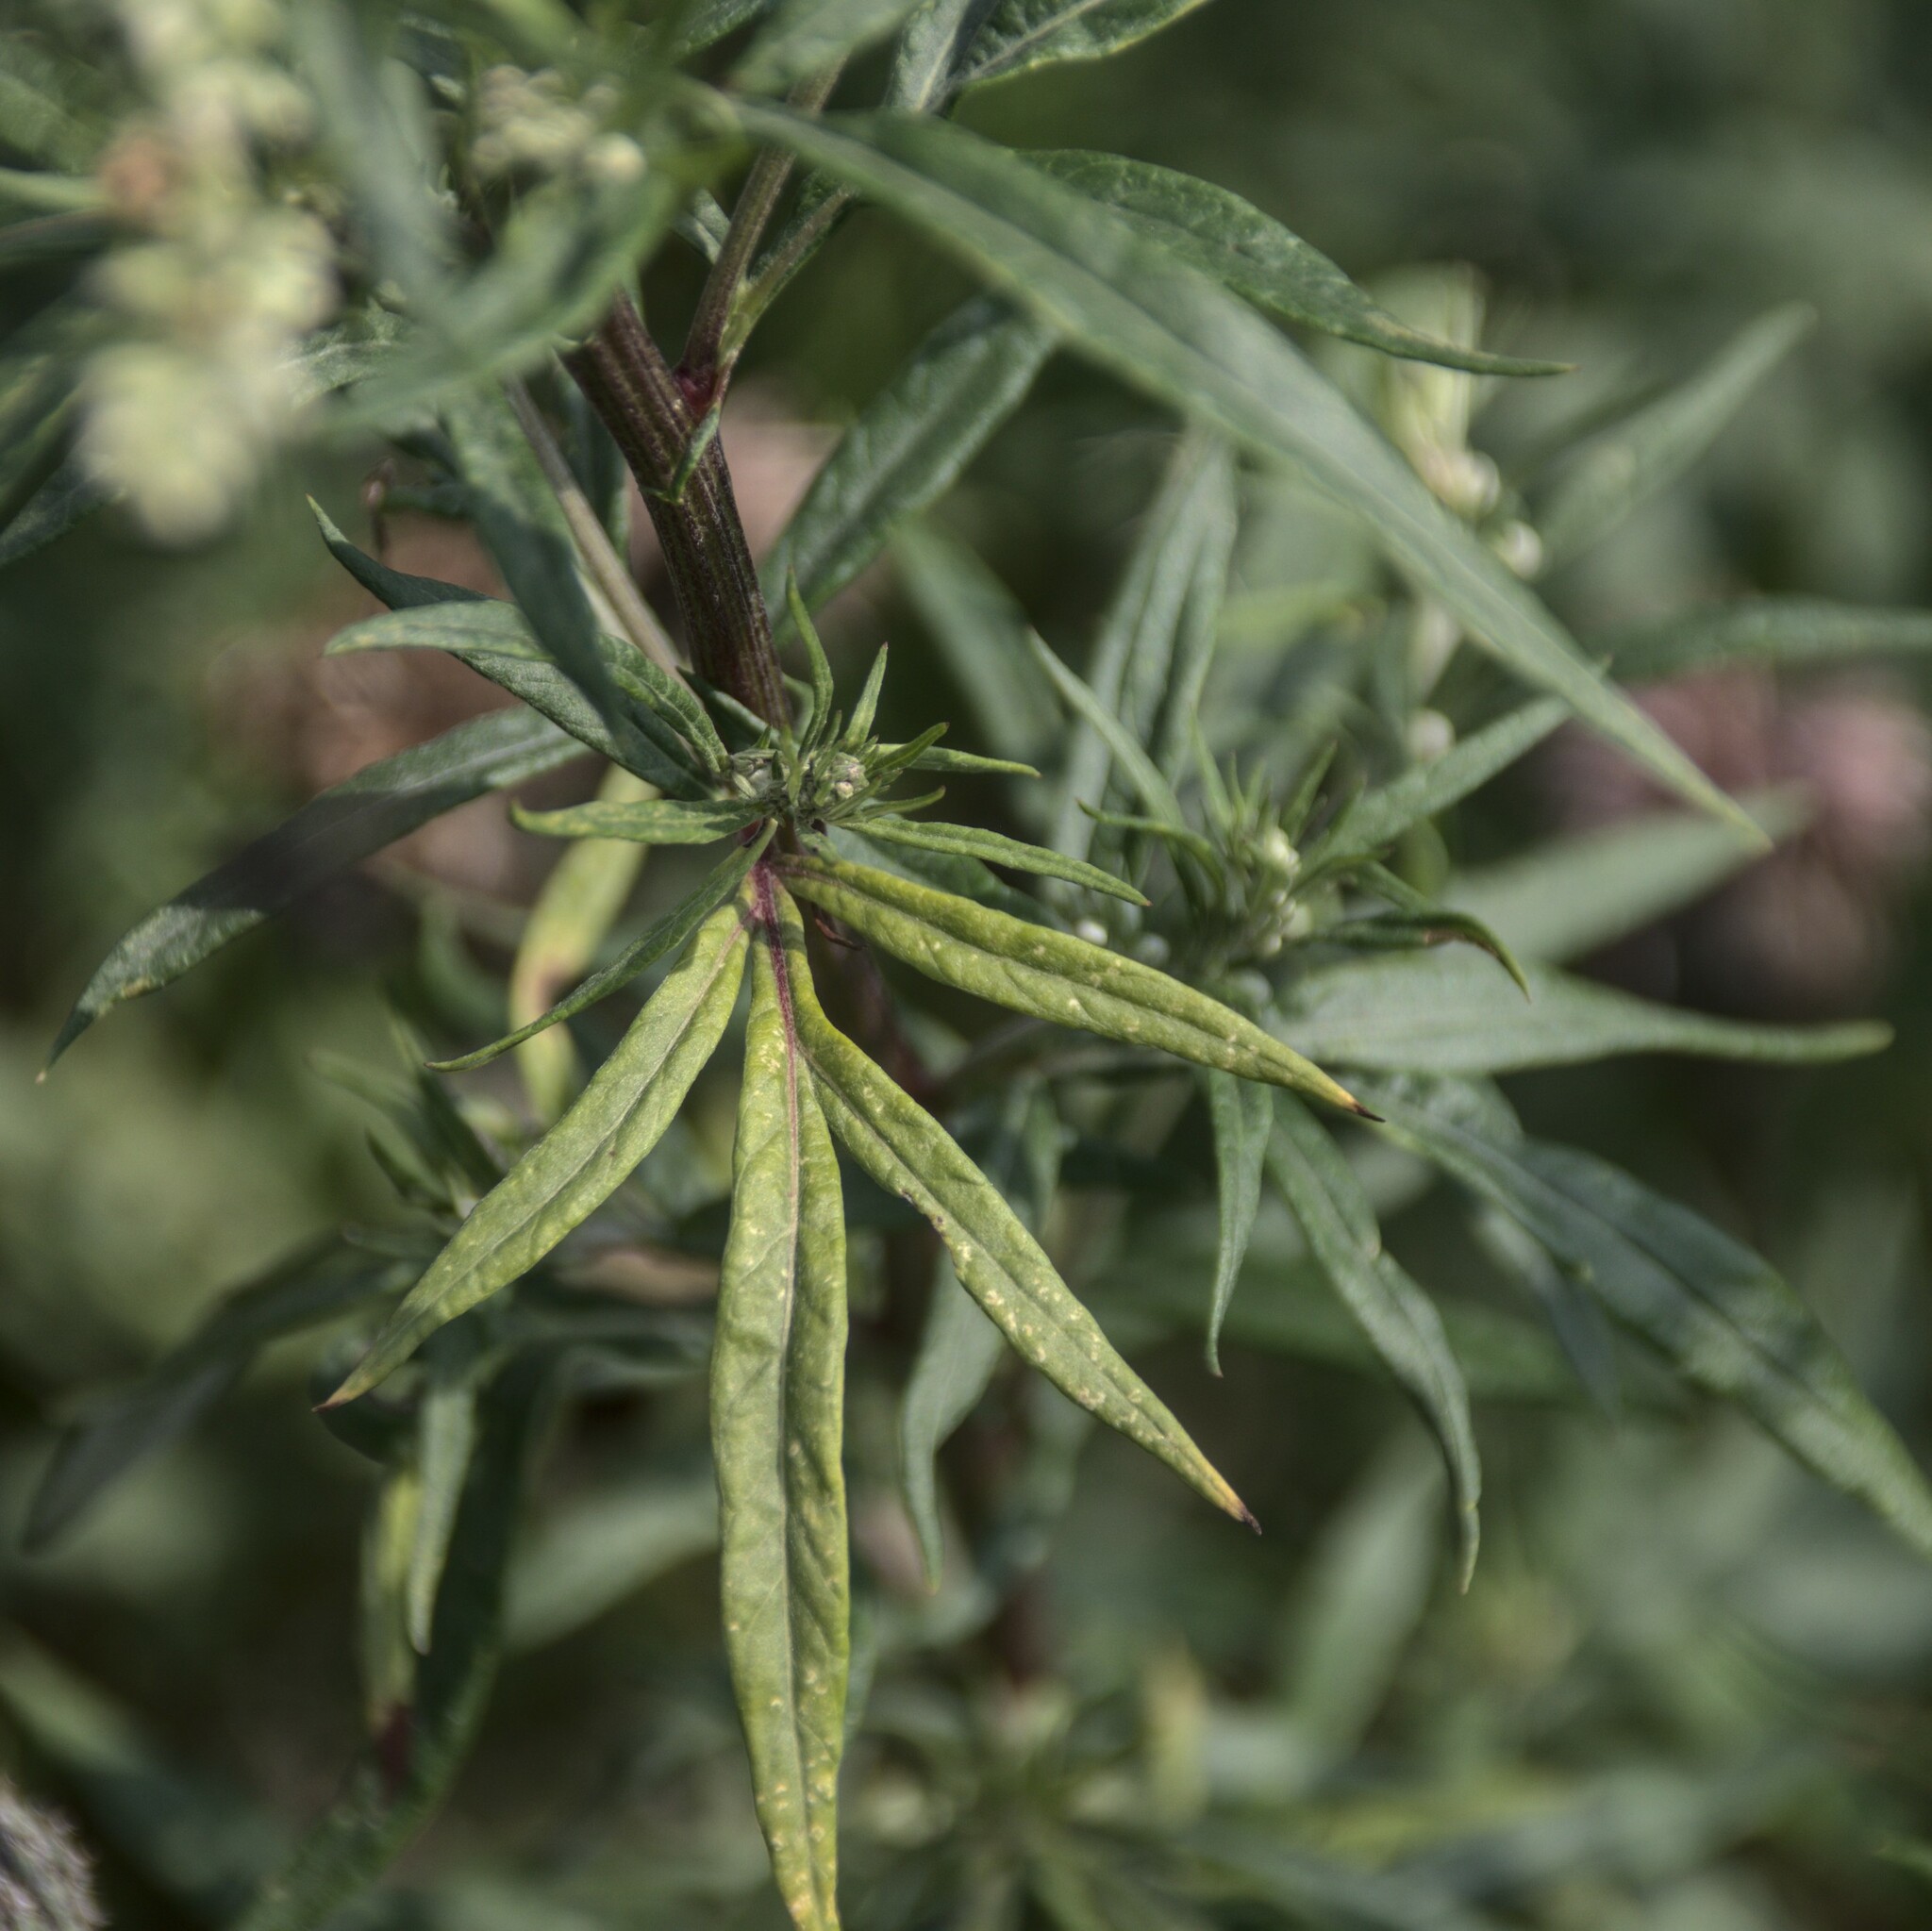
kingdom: Plantae
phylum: Tracheophyta
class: Magnoliopsida
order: Asterales
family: Asteraceae
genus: Artemisia
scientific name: Artemisia vulgaris
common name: Mugwort
